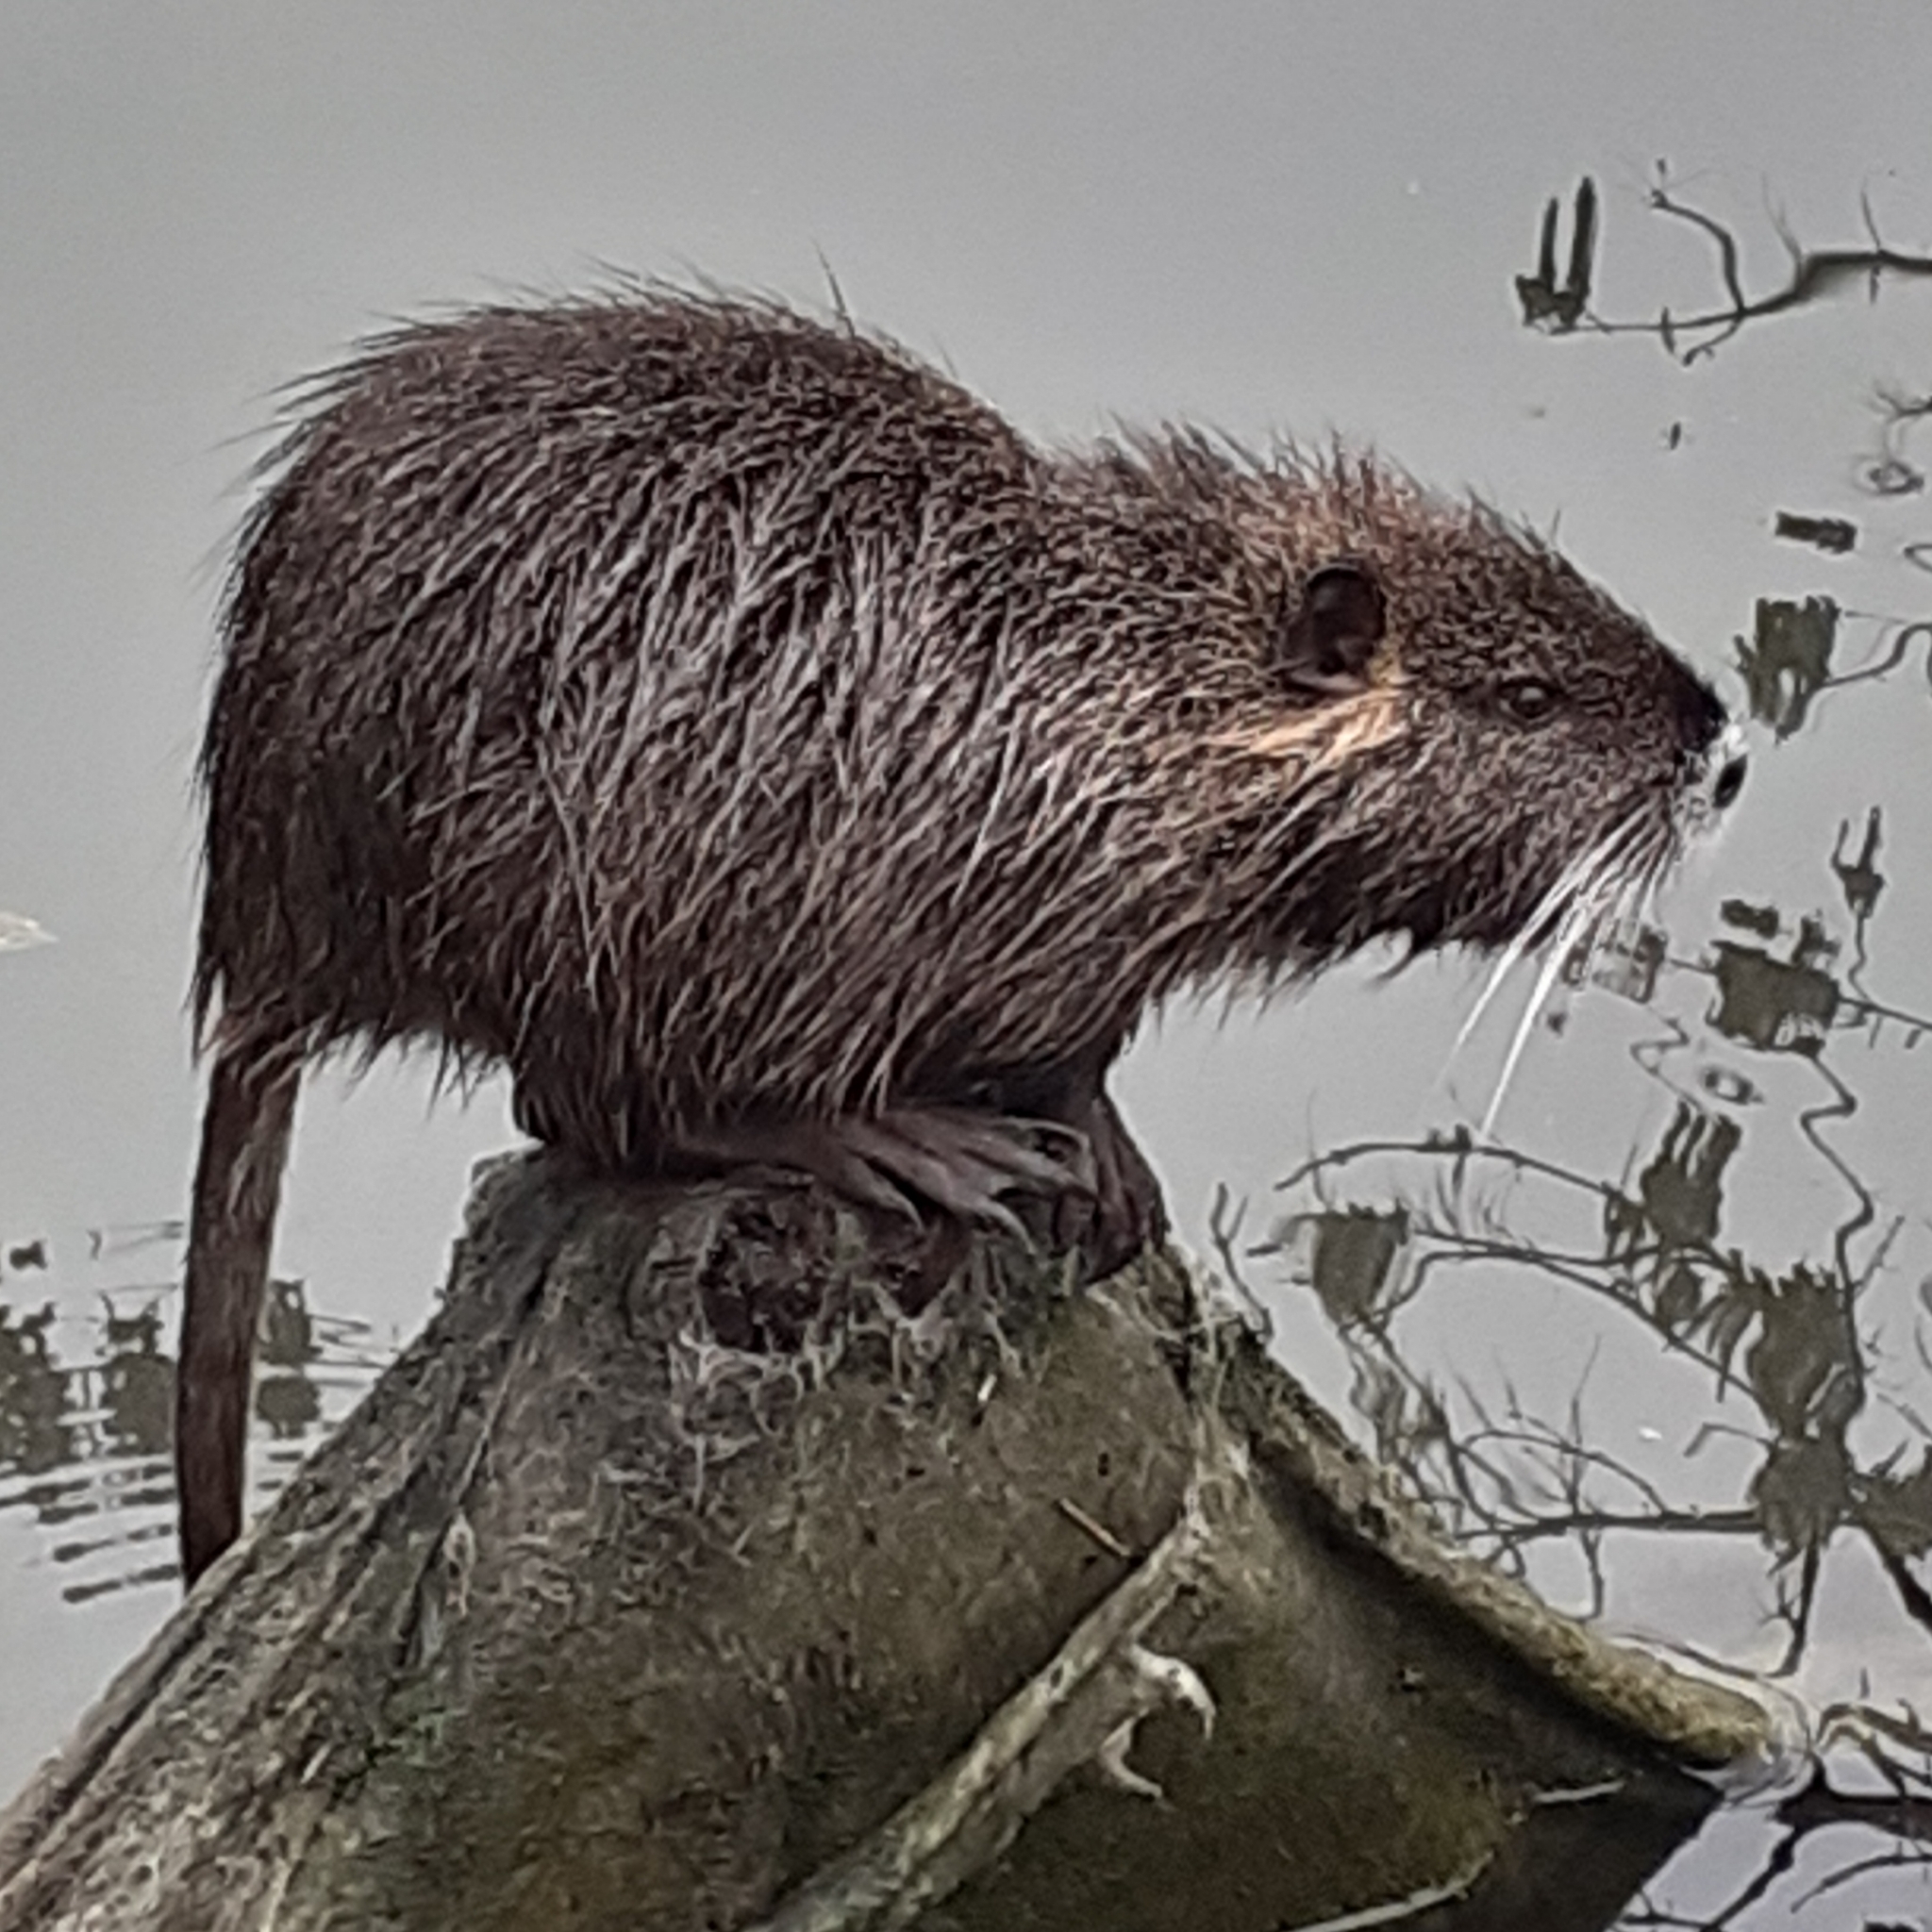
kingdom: Animalia
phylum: Chordata
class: Mammalia
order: Rodentia
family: Myocastoridae
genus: Myocastor
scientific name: Myocastor coypus
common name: Coypu
